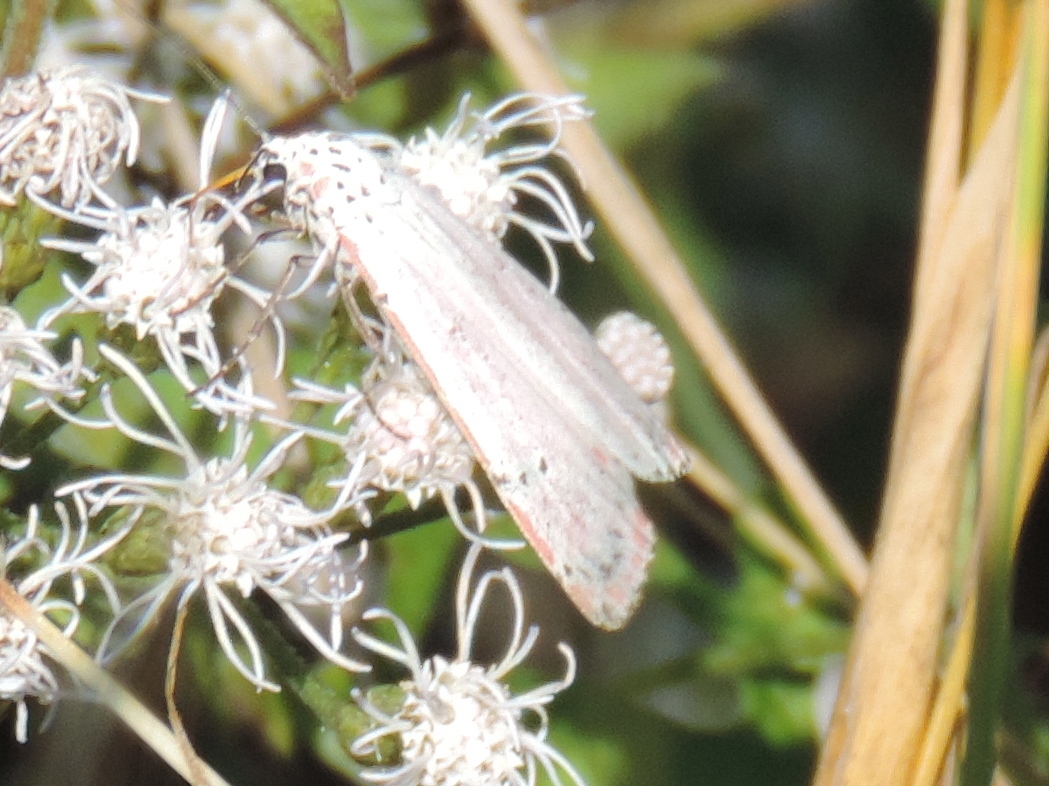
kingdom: Animalia
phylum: Arthropoda
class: Insecta
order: Lepidoptera
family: Erebidae
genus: Utetheisa
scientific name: Utetheisa ornatrix
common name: Beautiful utetheisa
